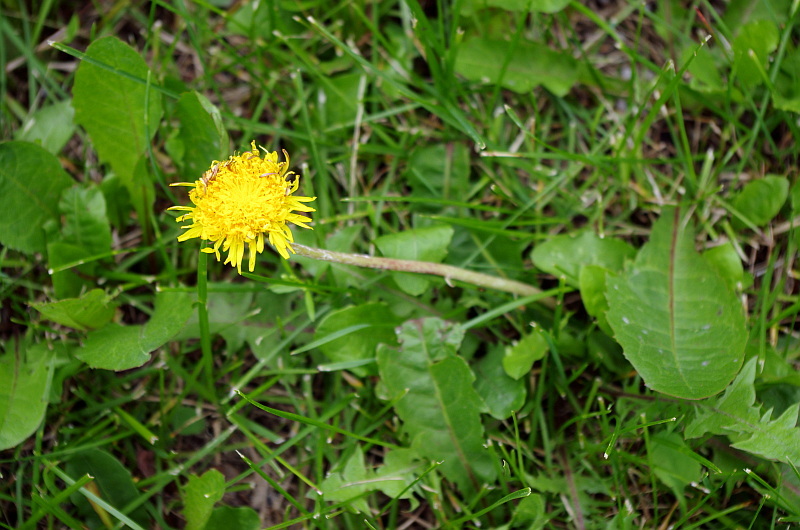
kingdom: Plantae
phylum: Tracheophyta
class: Magnoliopsida
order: Asterales
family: Asteraceae
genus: Taraxacum
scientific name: Taraxacum officinale
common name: Common dandelion
